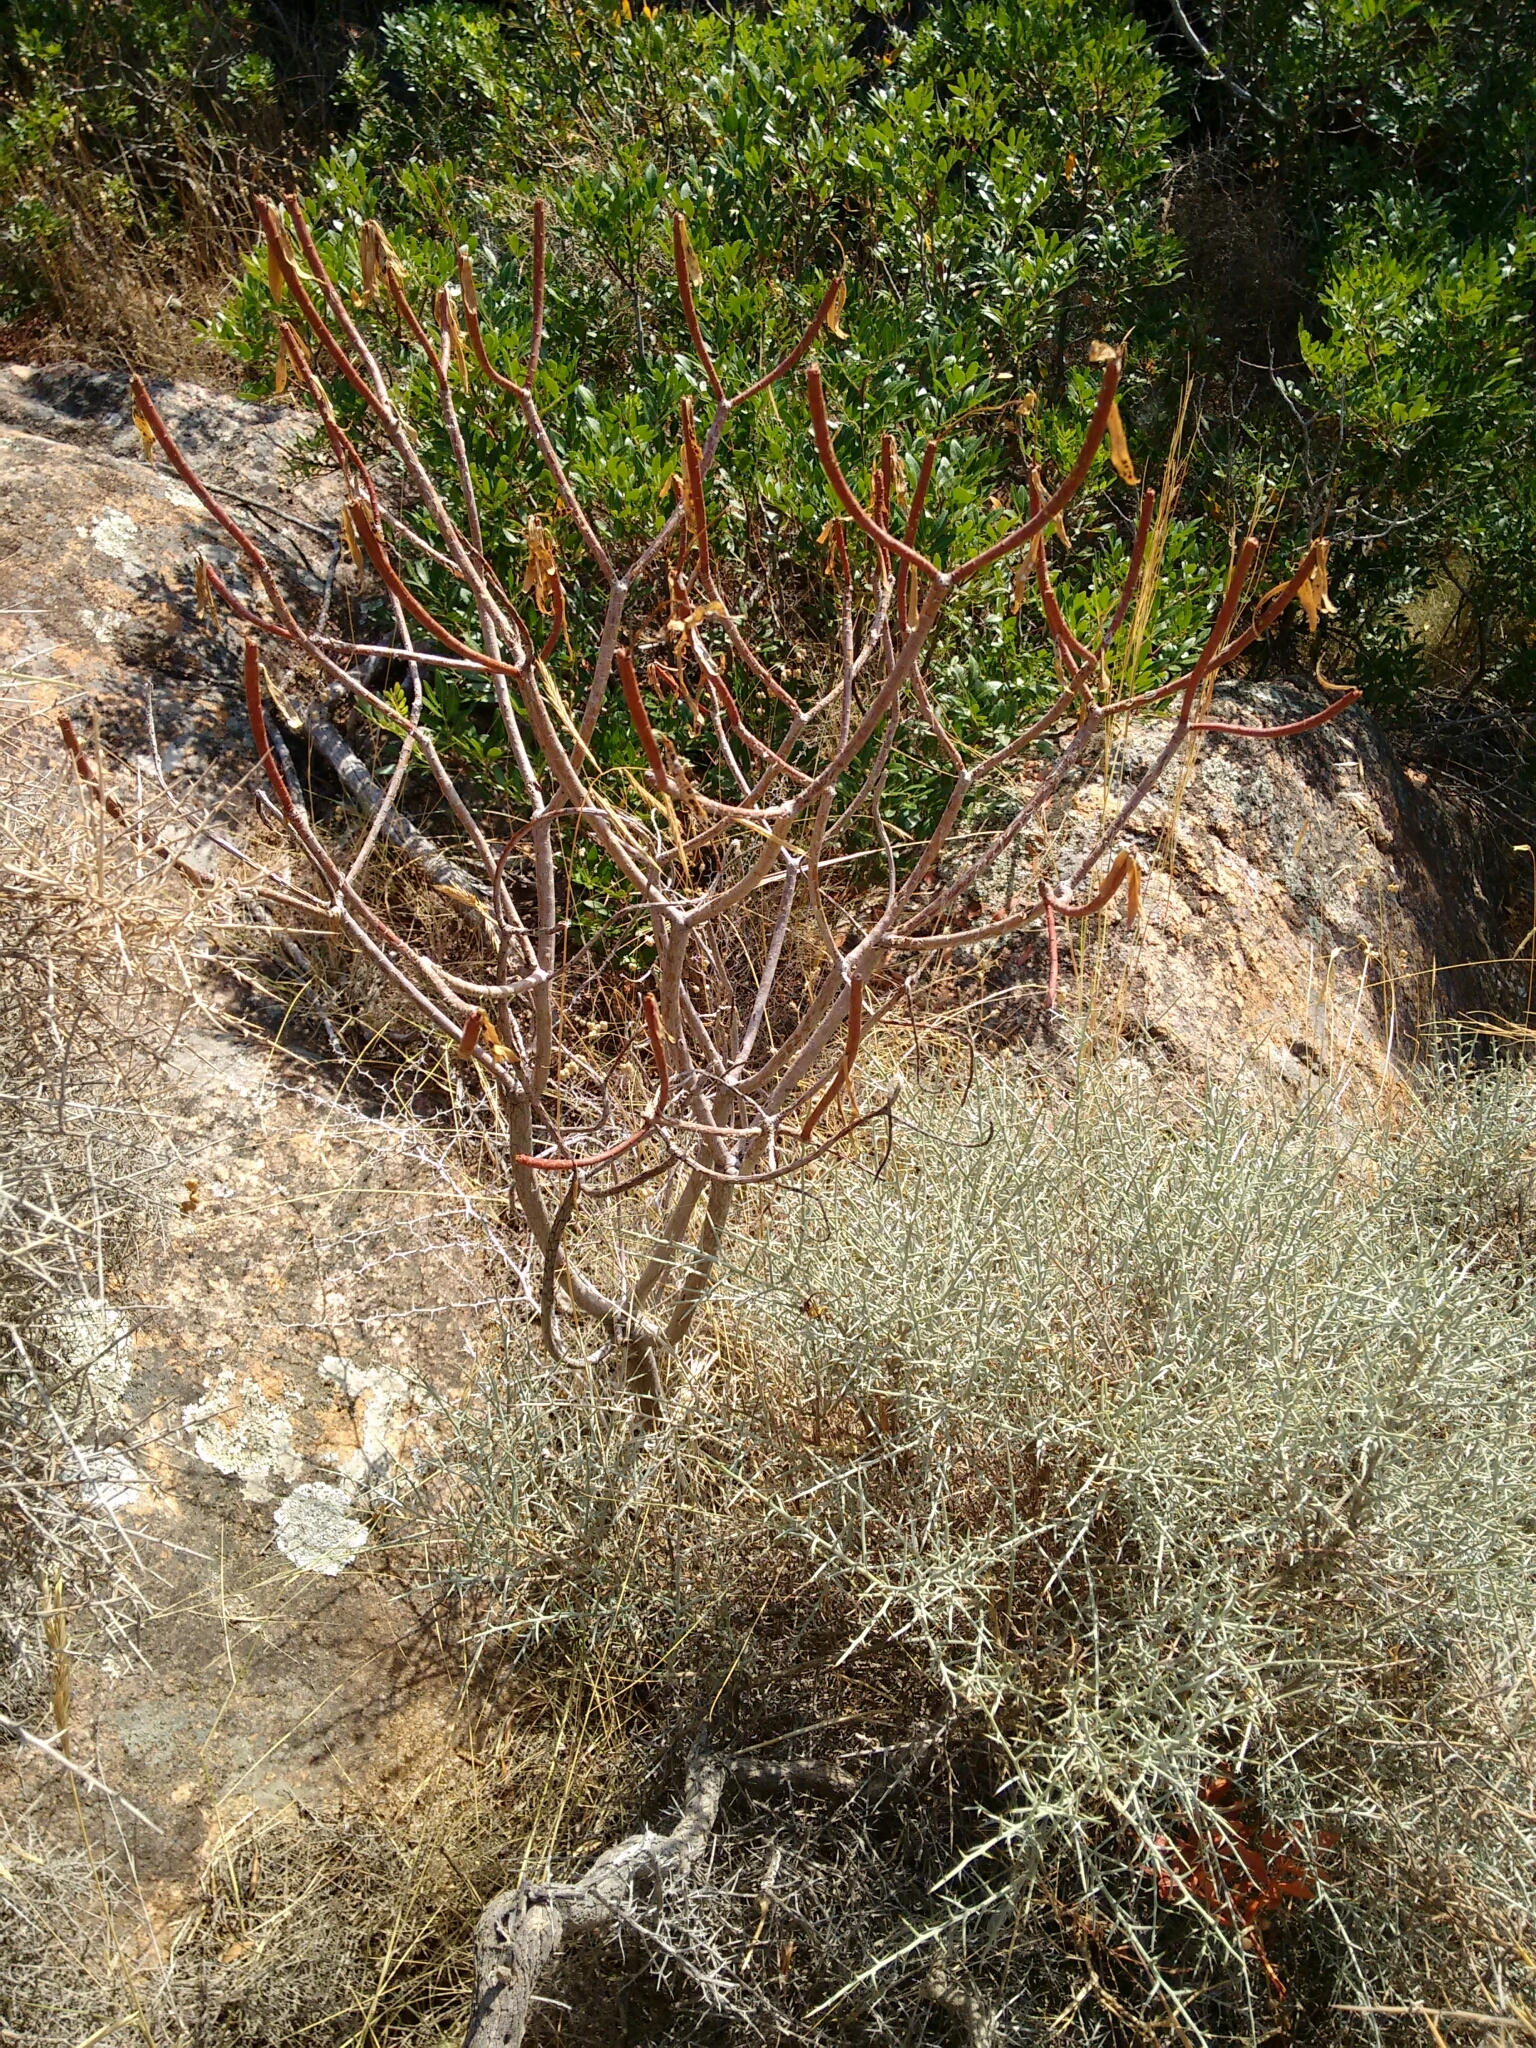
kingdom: Plantae
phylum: Tracheophyta
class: Magnoliopsida
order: Malpighiales
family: Euphorbiaceae
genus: Euphorbia
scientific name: Euphorbia dendroides
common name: Tree spurge
